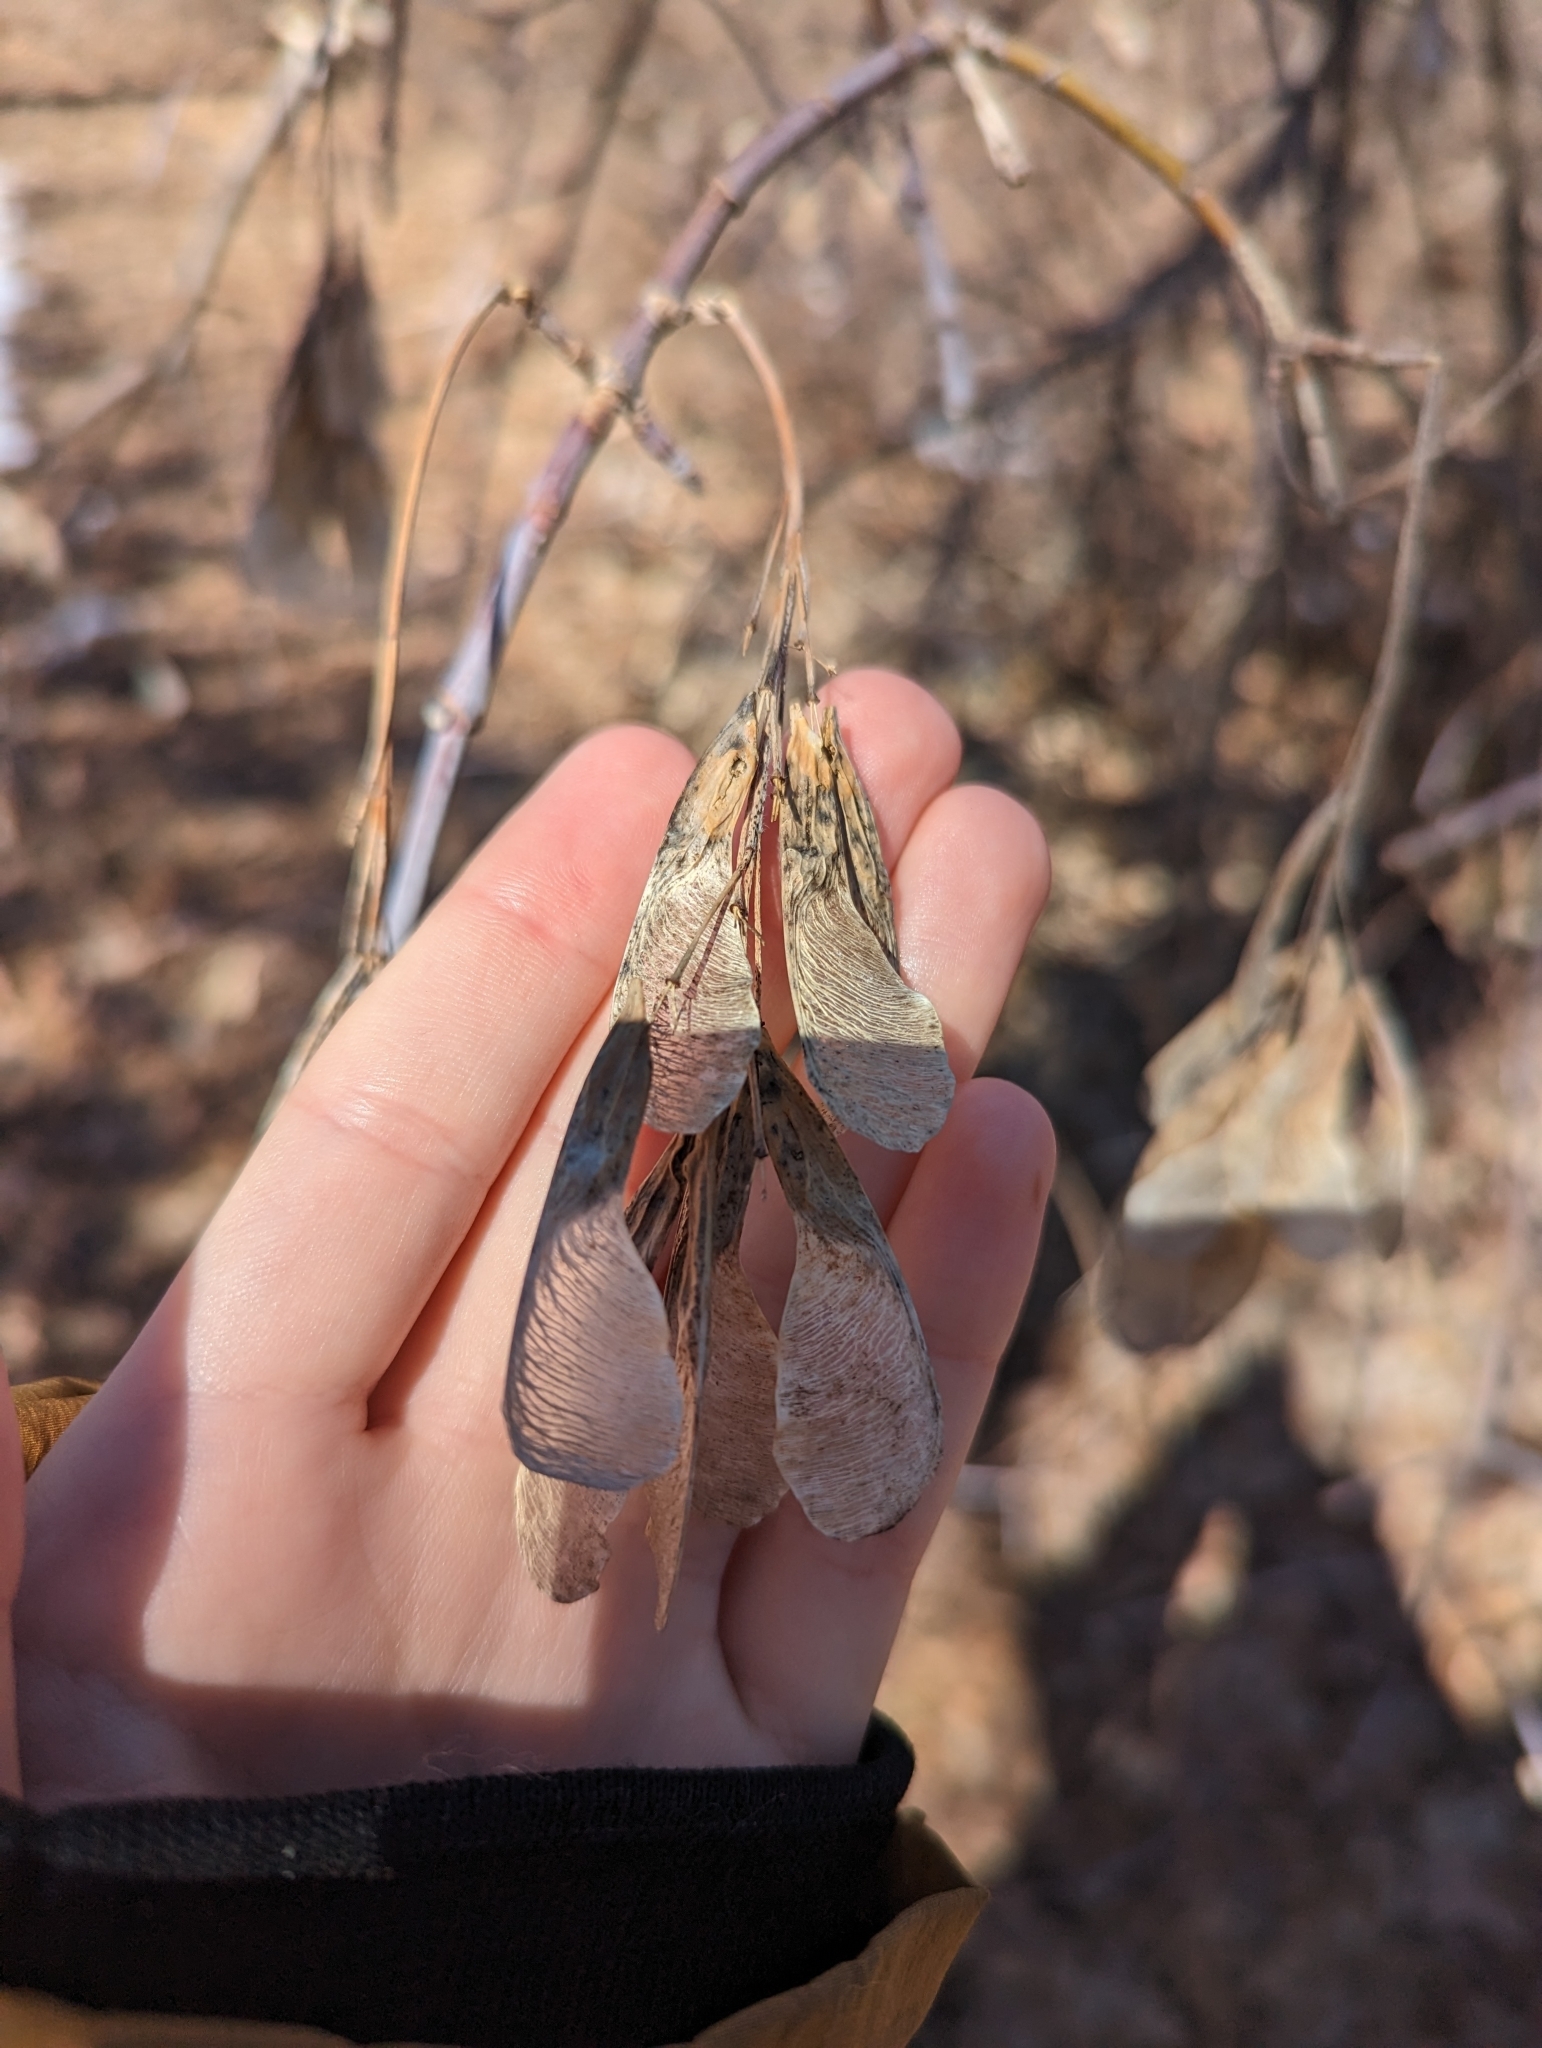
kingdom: Plantae
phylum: Tracheophyta
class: Magnoliopsida
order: Sapindales
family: Sapindaceae
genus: Acer
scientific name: Acer negundo
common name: Ashleaf maple
